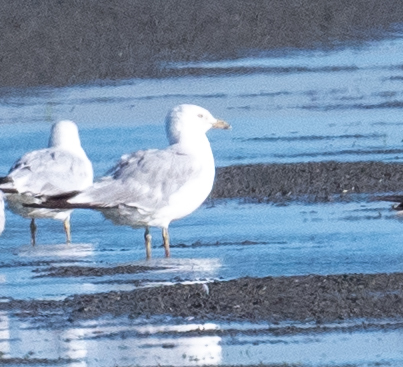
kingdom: Animalia
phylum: Chordata
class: Aves
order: Charadriiformes
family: Laridae
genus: Larus
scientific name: Larus delawarensis
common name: Ring-billed gull
